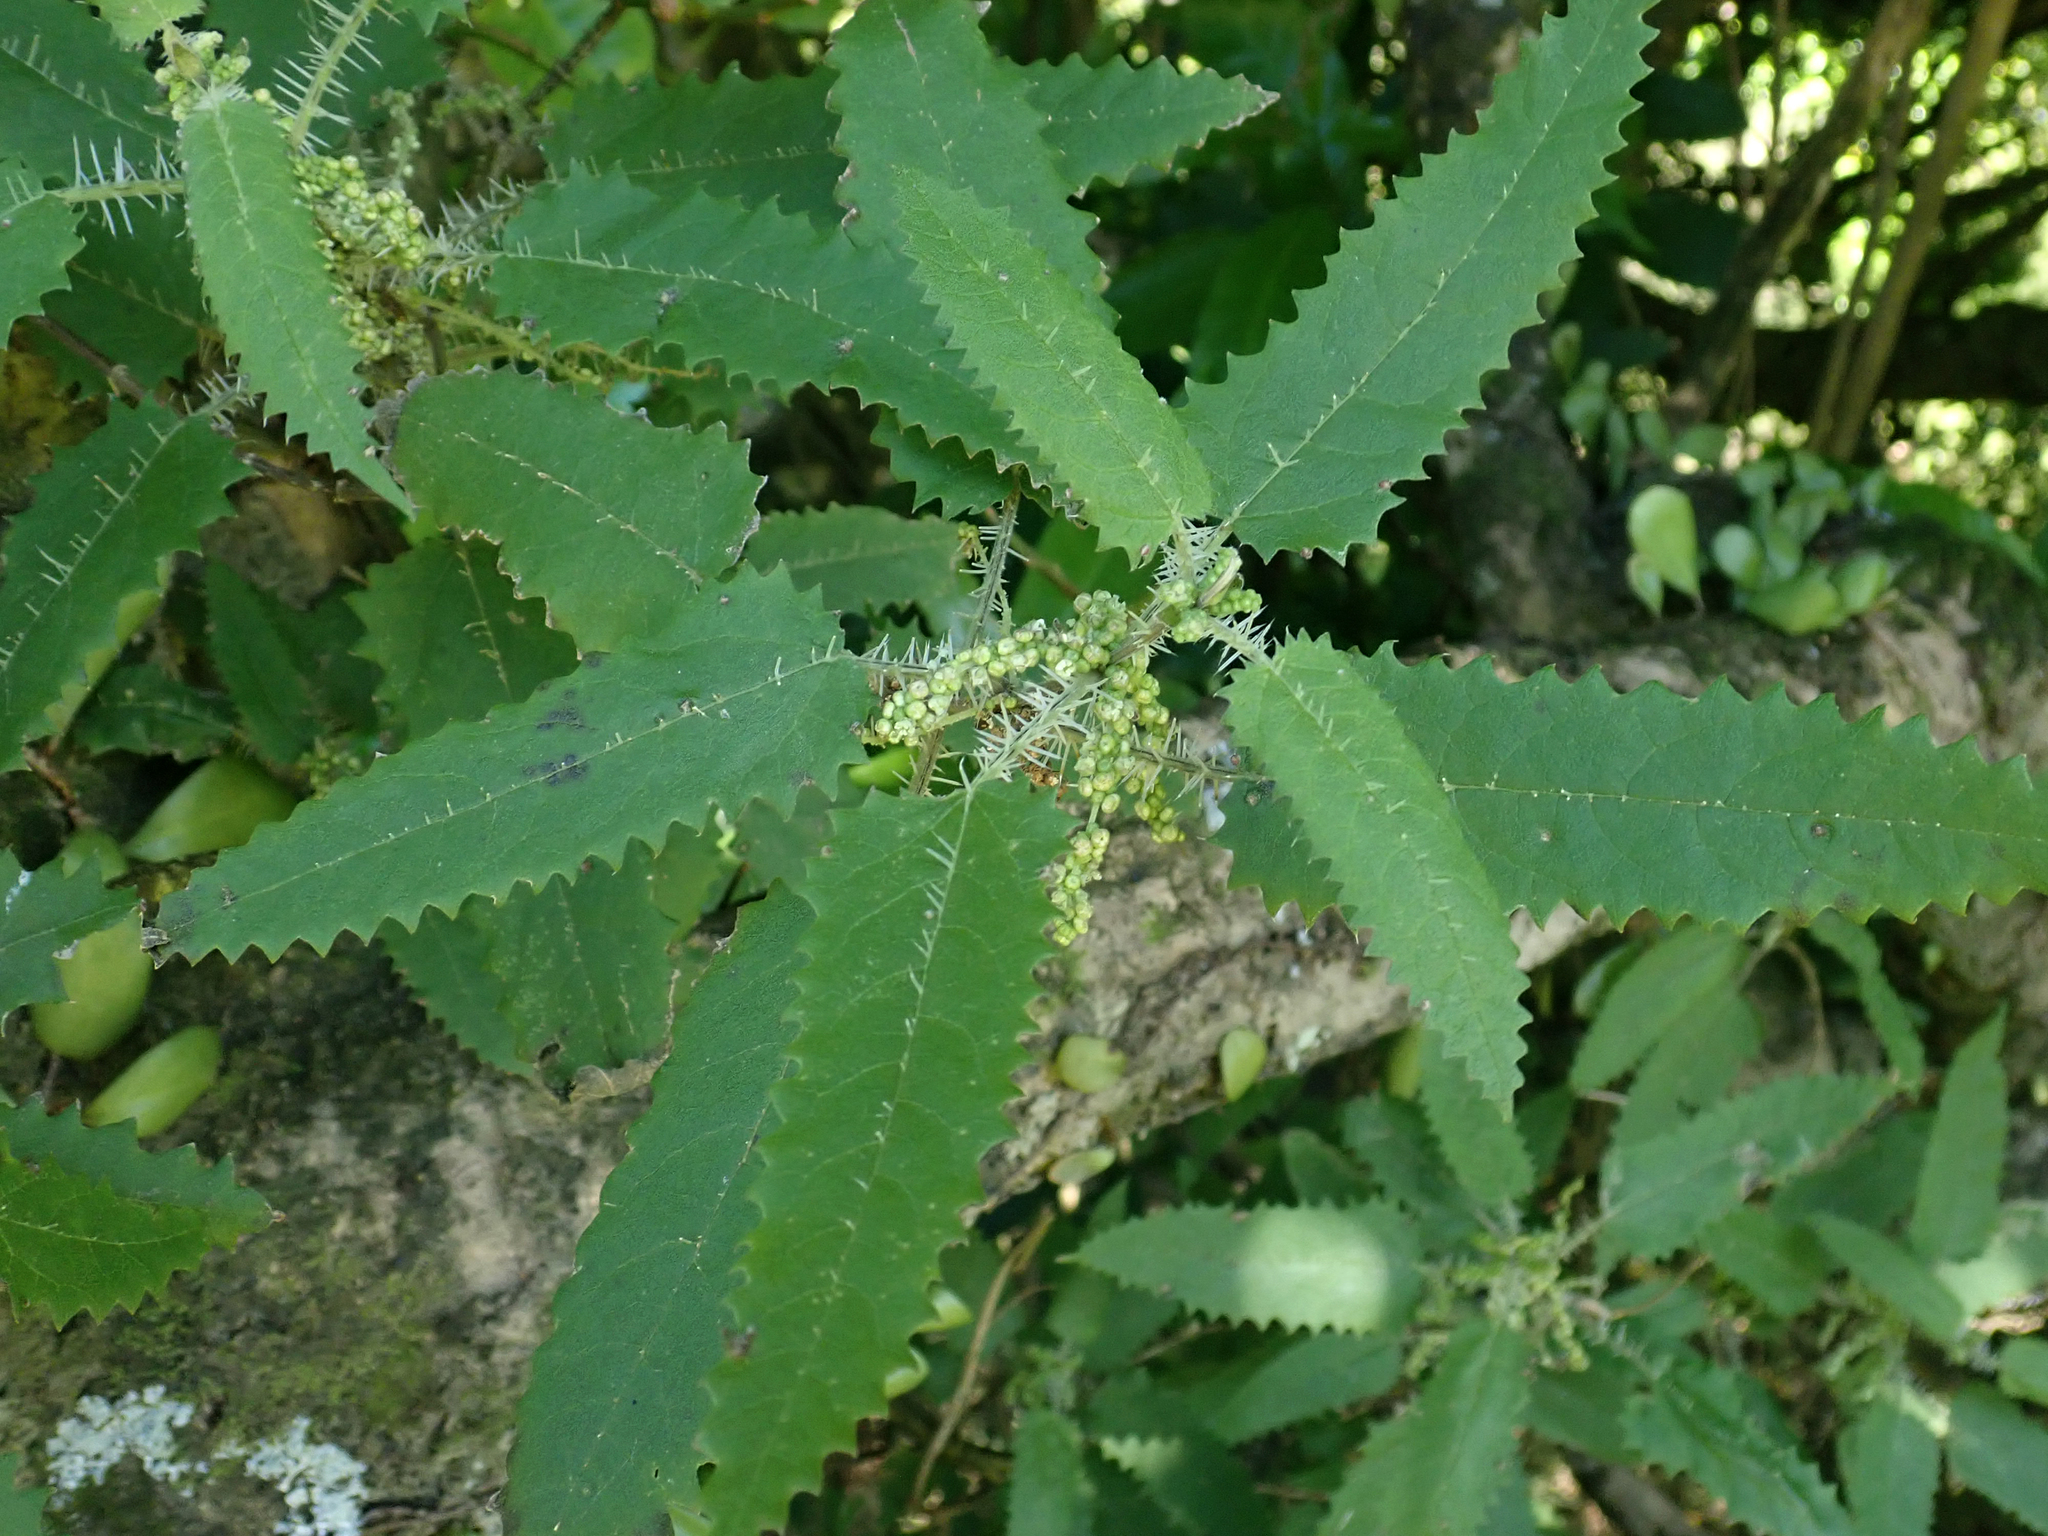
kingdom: Plantae
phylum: Tracheophyta
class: Magnoliopsida
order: Rosales
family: Urticaceae
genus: Urtica
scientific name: Urtica ferox
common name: Tree nettle
